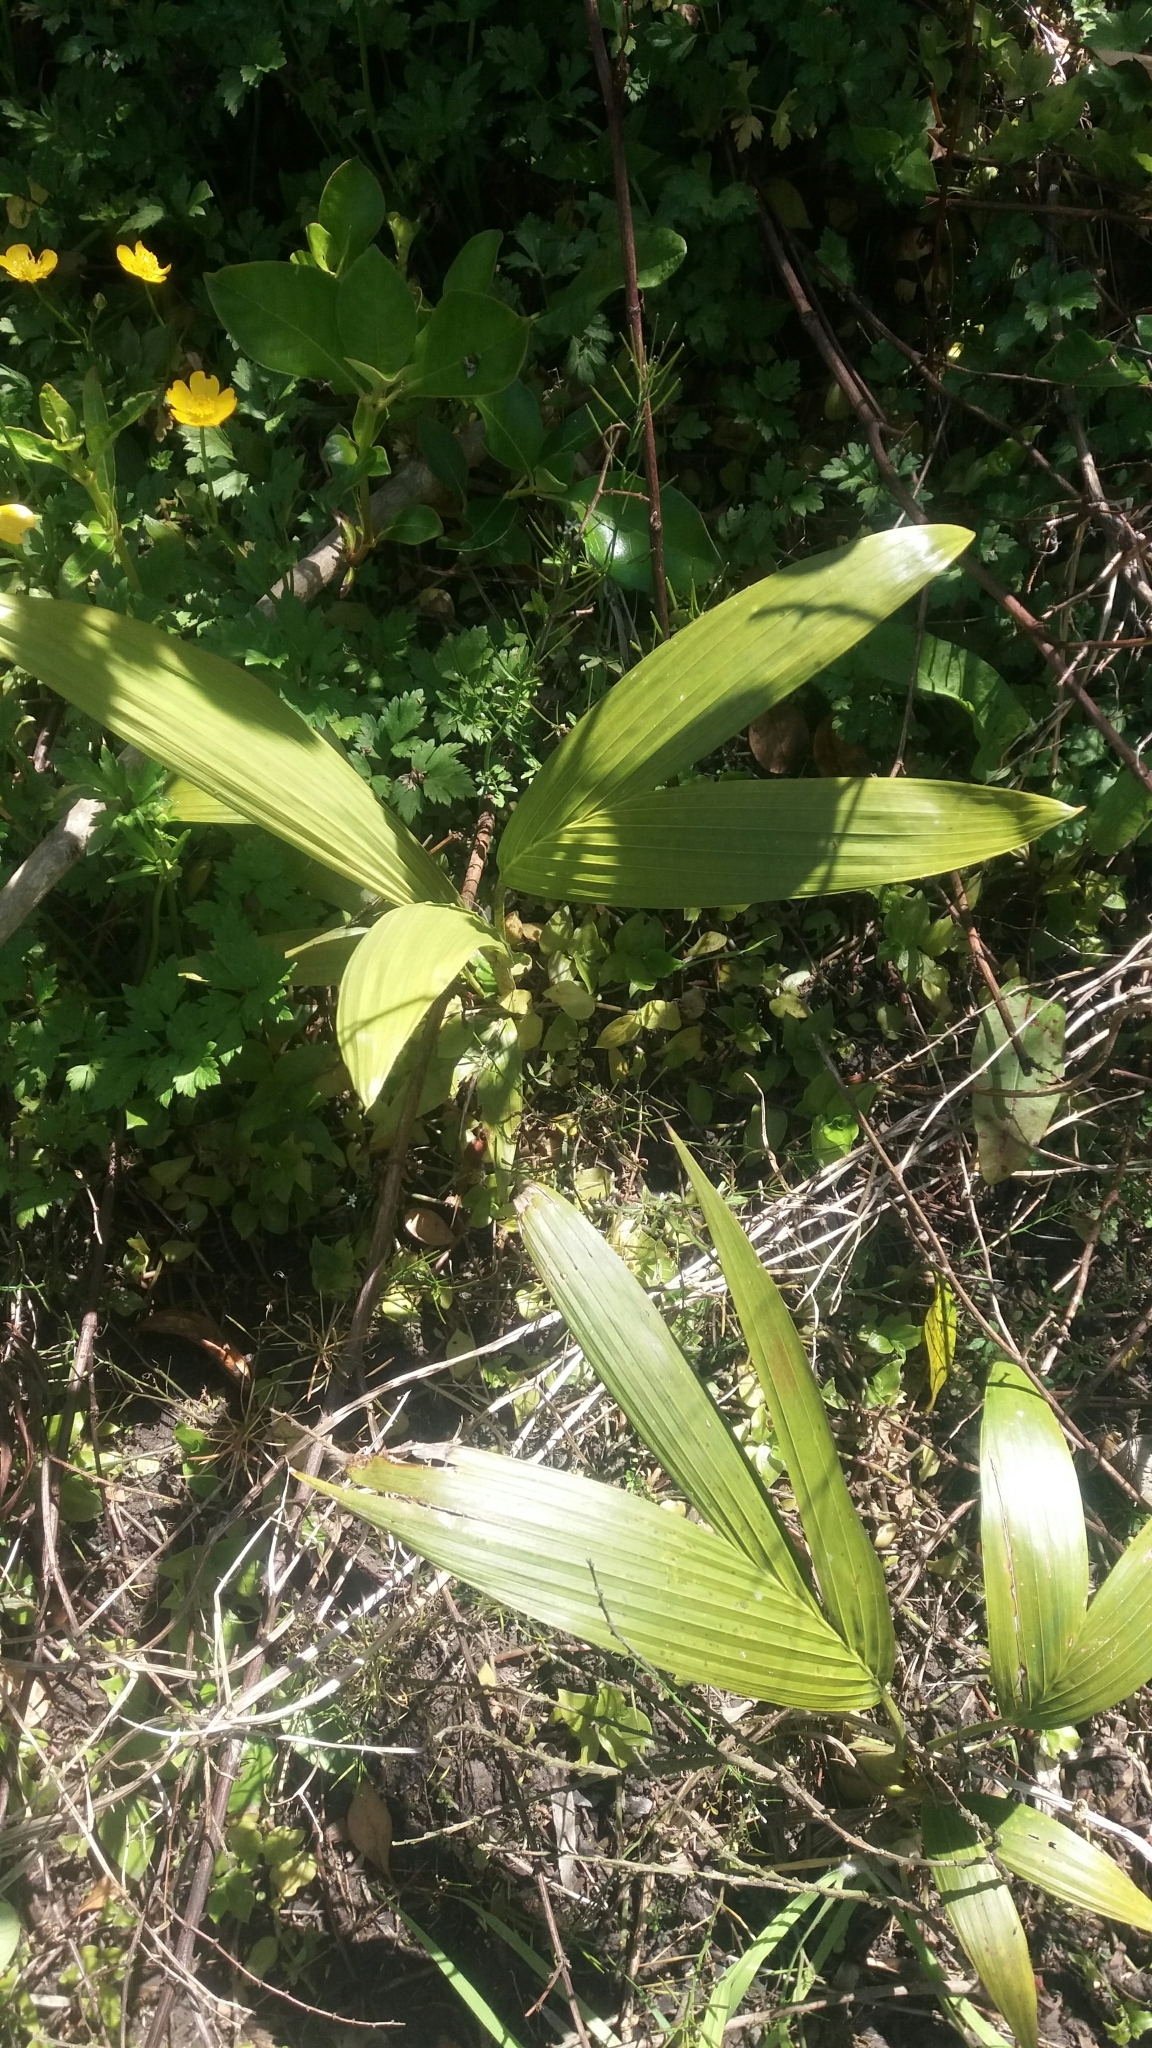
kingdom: Plantae
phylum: Tracheophyta
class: Liliopsida
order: Arecales
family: Arecaceae
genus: Archontophoenix
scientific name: Archontophoenix cunninghamiana
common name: Piccabeen bangalow palm
